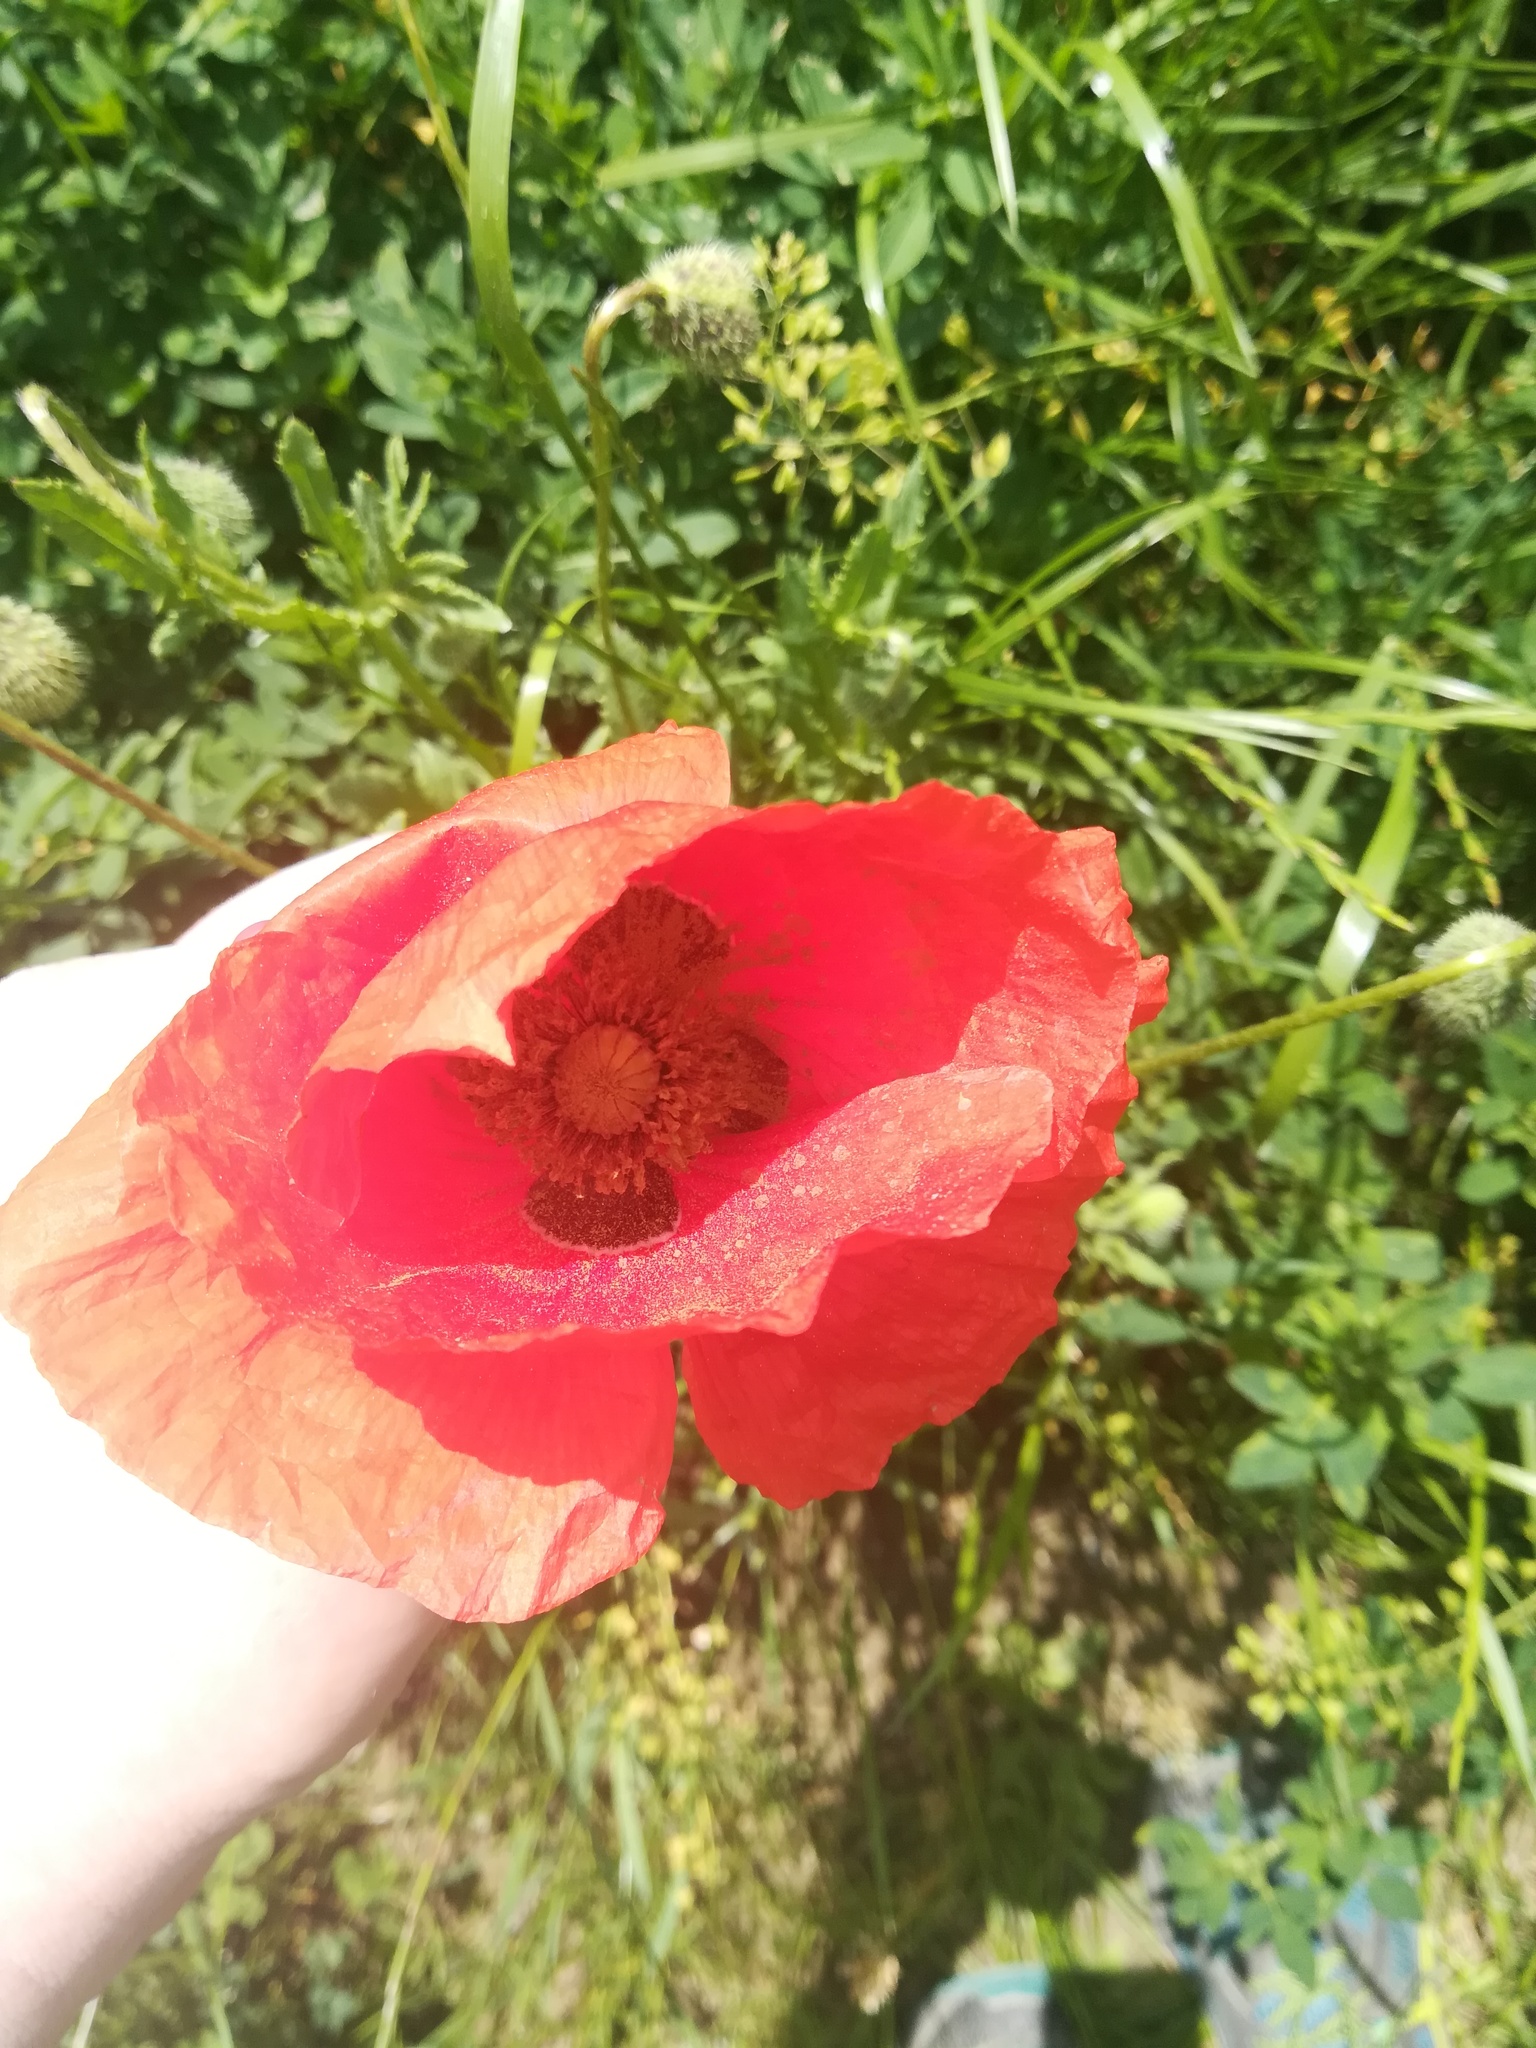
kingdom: Plantae
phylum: Tracheophyta
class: Magnoliopsida
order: Ranunculales
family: Papaveraceae
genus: Papaver
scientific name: Papaver rhoeas
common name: Corn poppy
